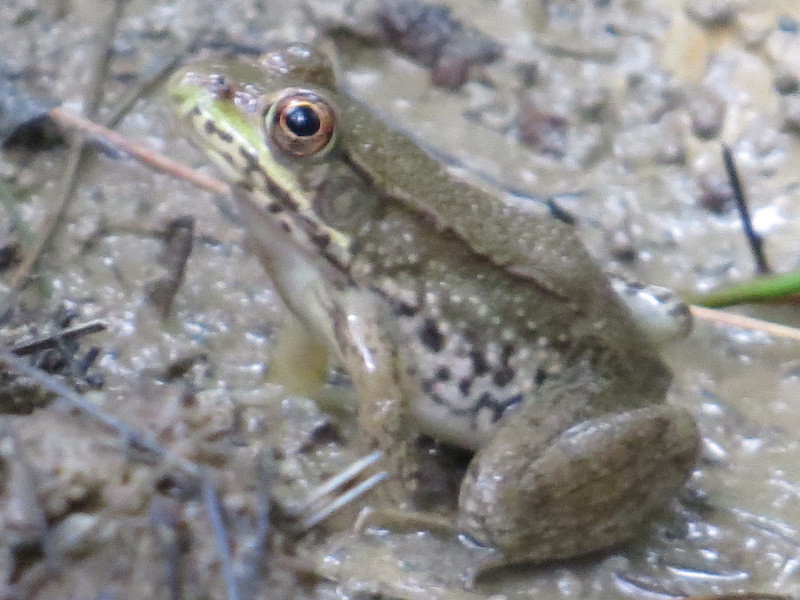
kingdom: Animalia
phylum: Chordata
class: Amphibia
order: Anura
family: Ranidae
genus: Lithobates
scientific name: Lithobates clamitans
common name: Green frog
